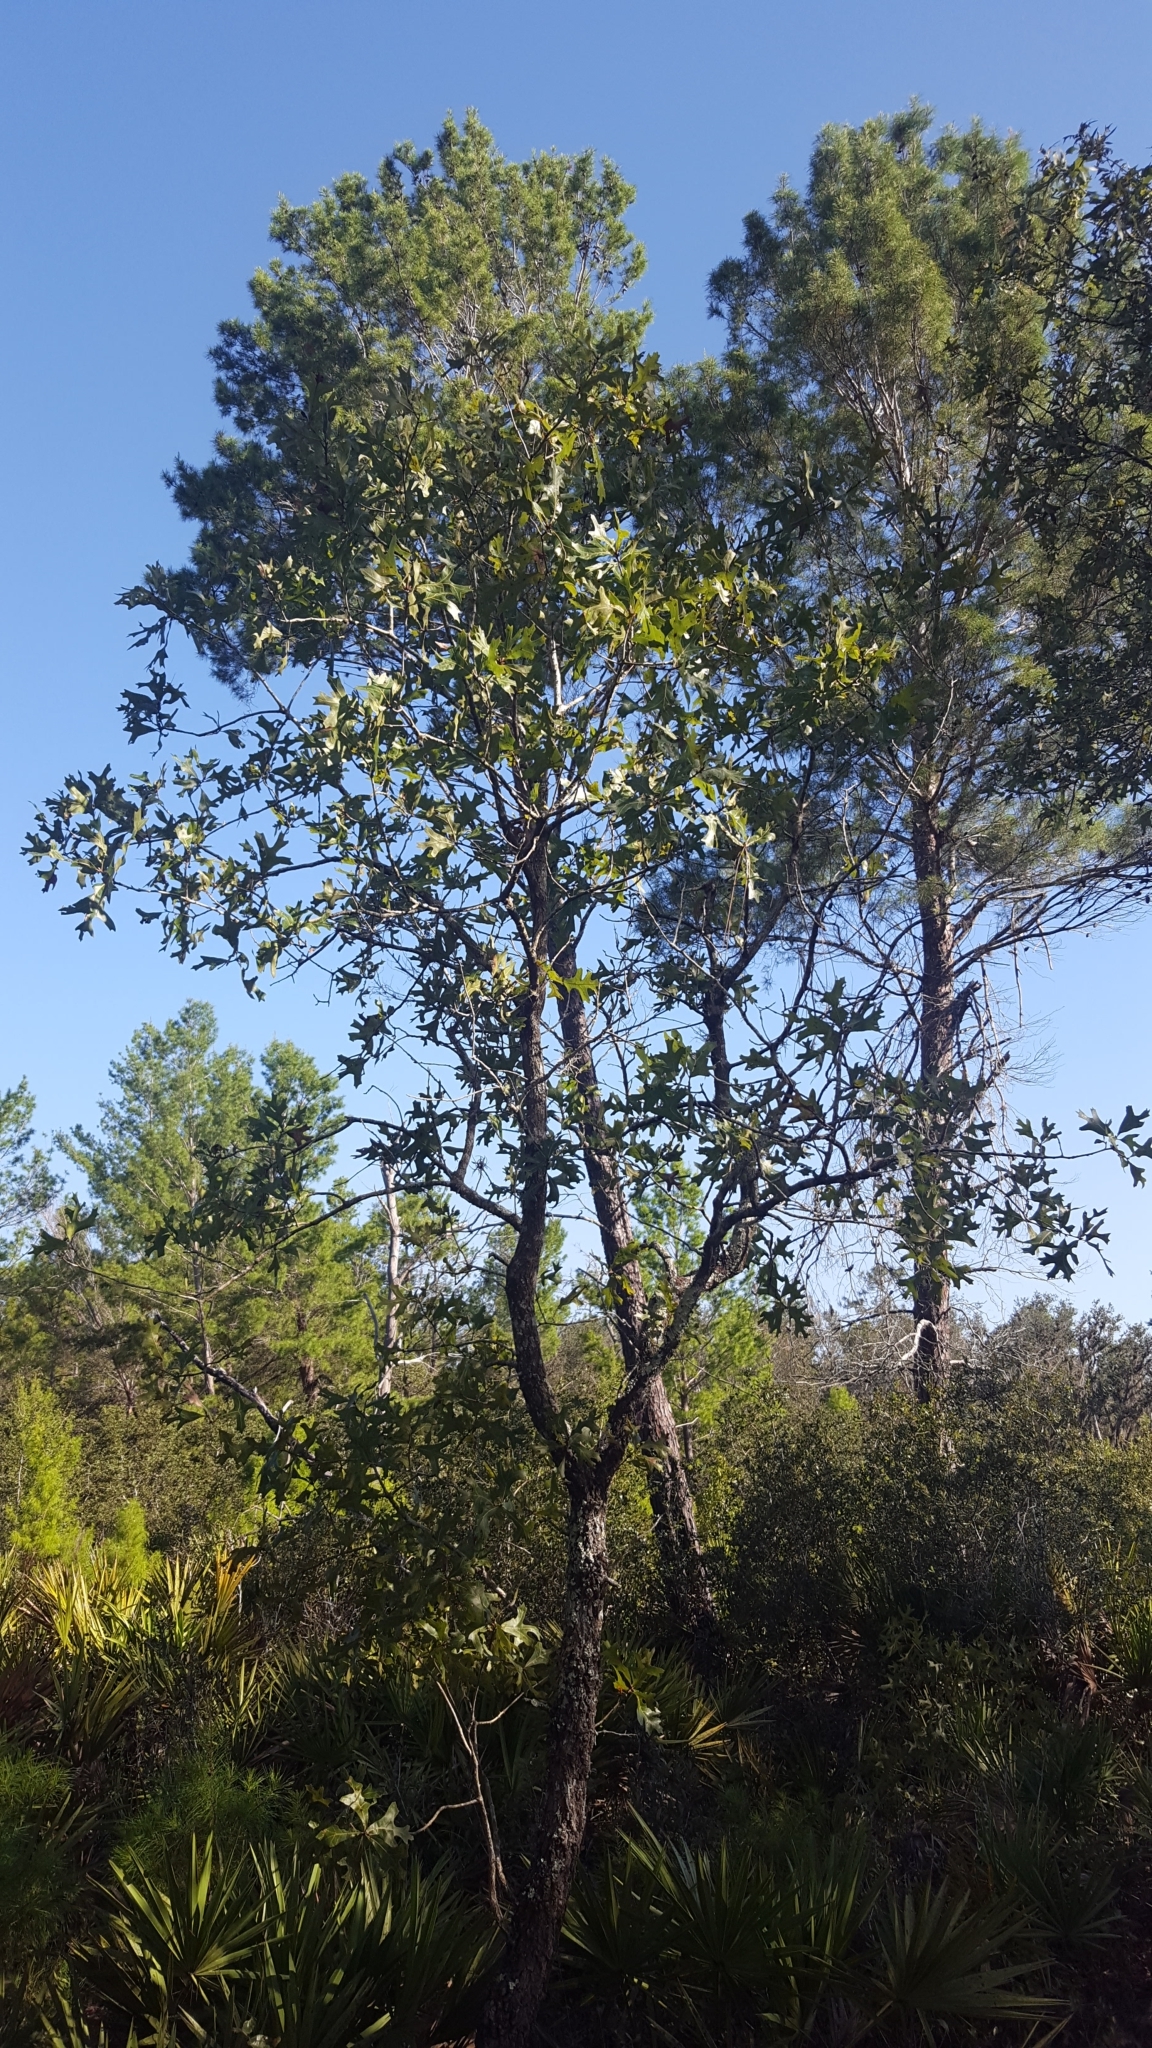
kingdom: Plantae
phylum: Tracheophyta
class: Magnoliopsida
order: Fagales
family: Fagaceae
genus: Quercus
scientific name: Quercus laevis
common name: Turkey oak
